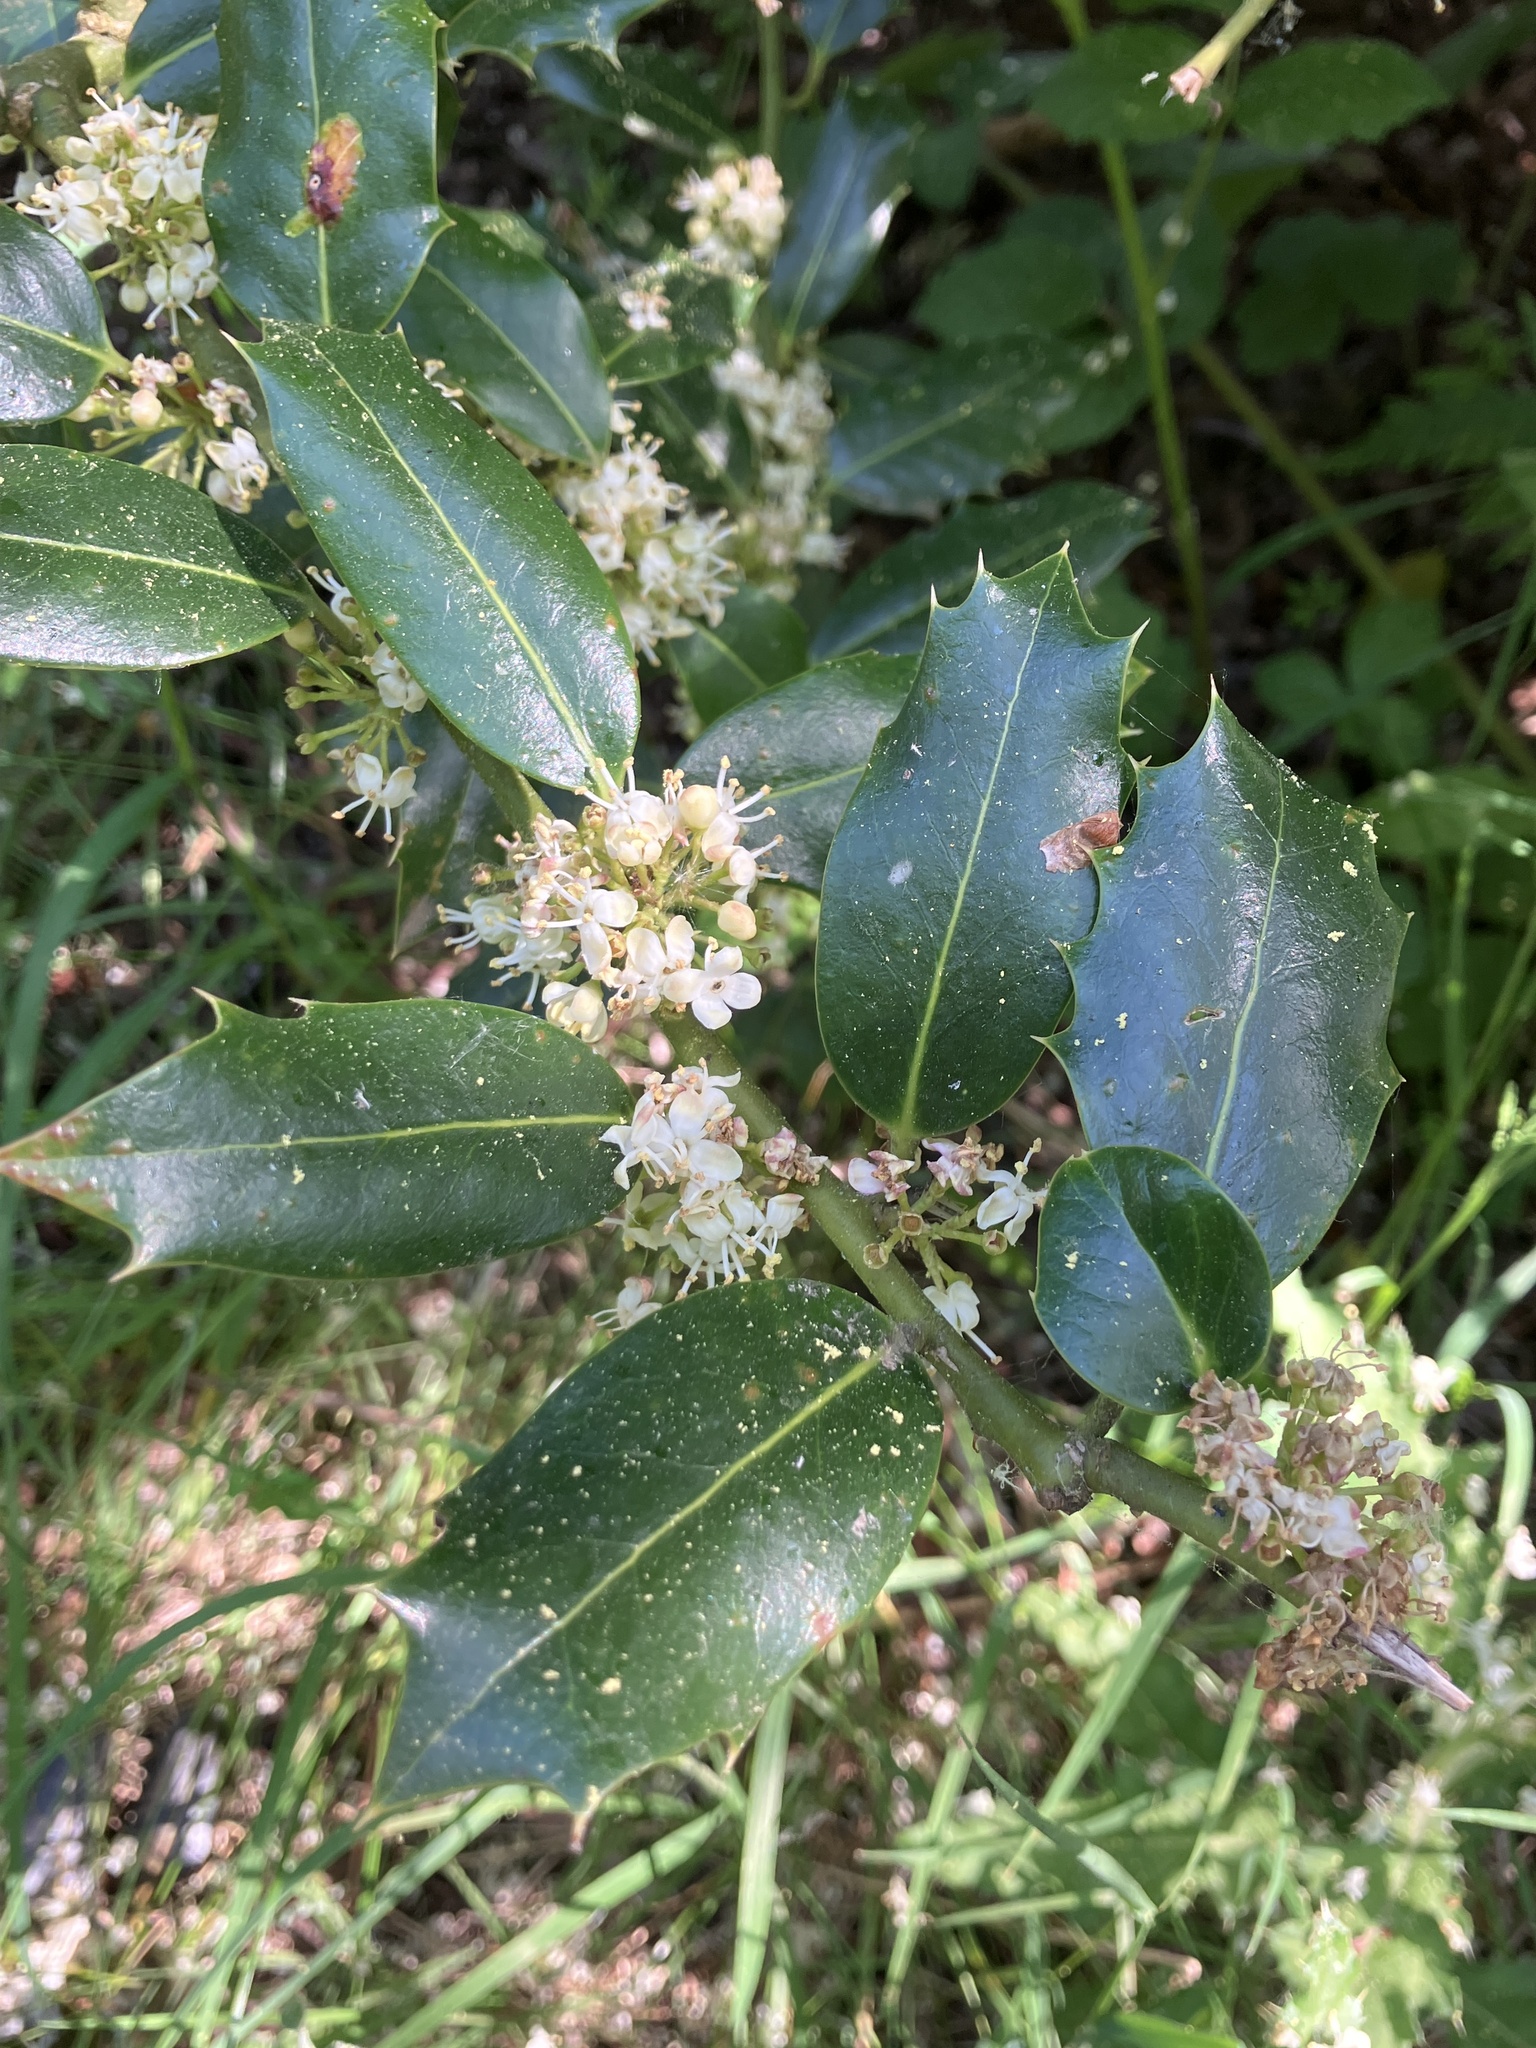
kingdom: Plantae
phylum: Tracheophyta
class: Magnoliopsida
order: Aquifoliales
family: Aquifoliaceae
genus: Ilex
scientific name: Ilex aquifolium
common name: English holly
